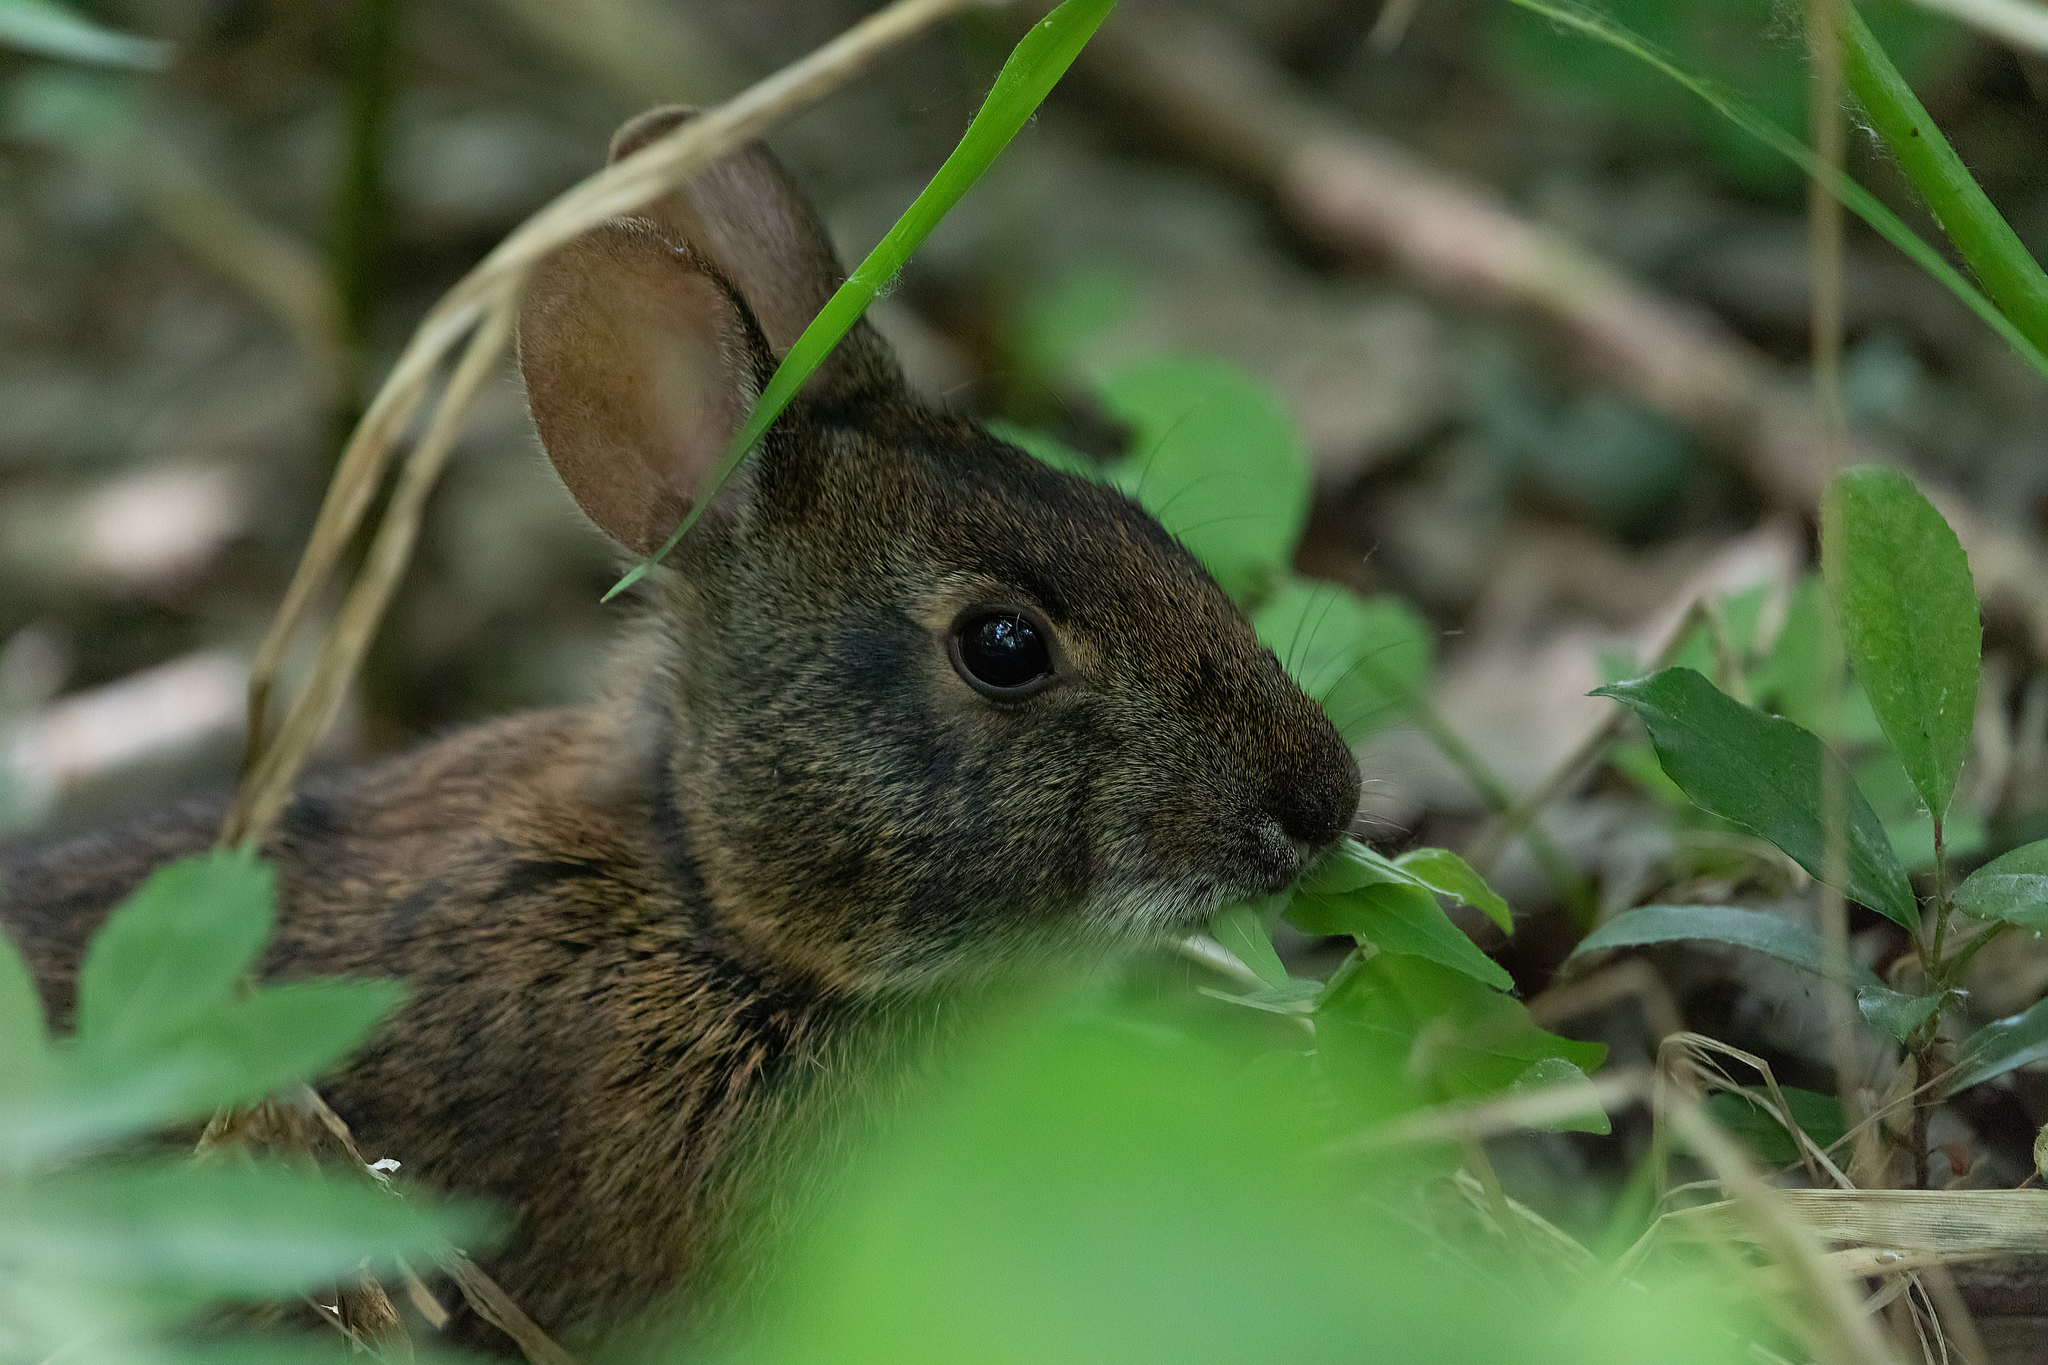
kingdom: Animalia
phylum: Chordata
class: Mammalia
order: Lagomorpha
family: Leporidae
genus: Sylvilagus
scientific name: Sylvilagus palustris
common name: Marsh rabbit
